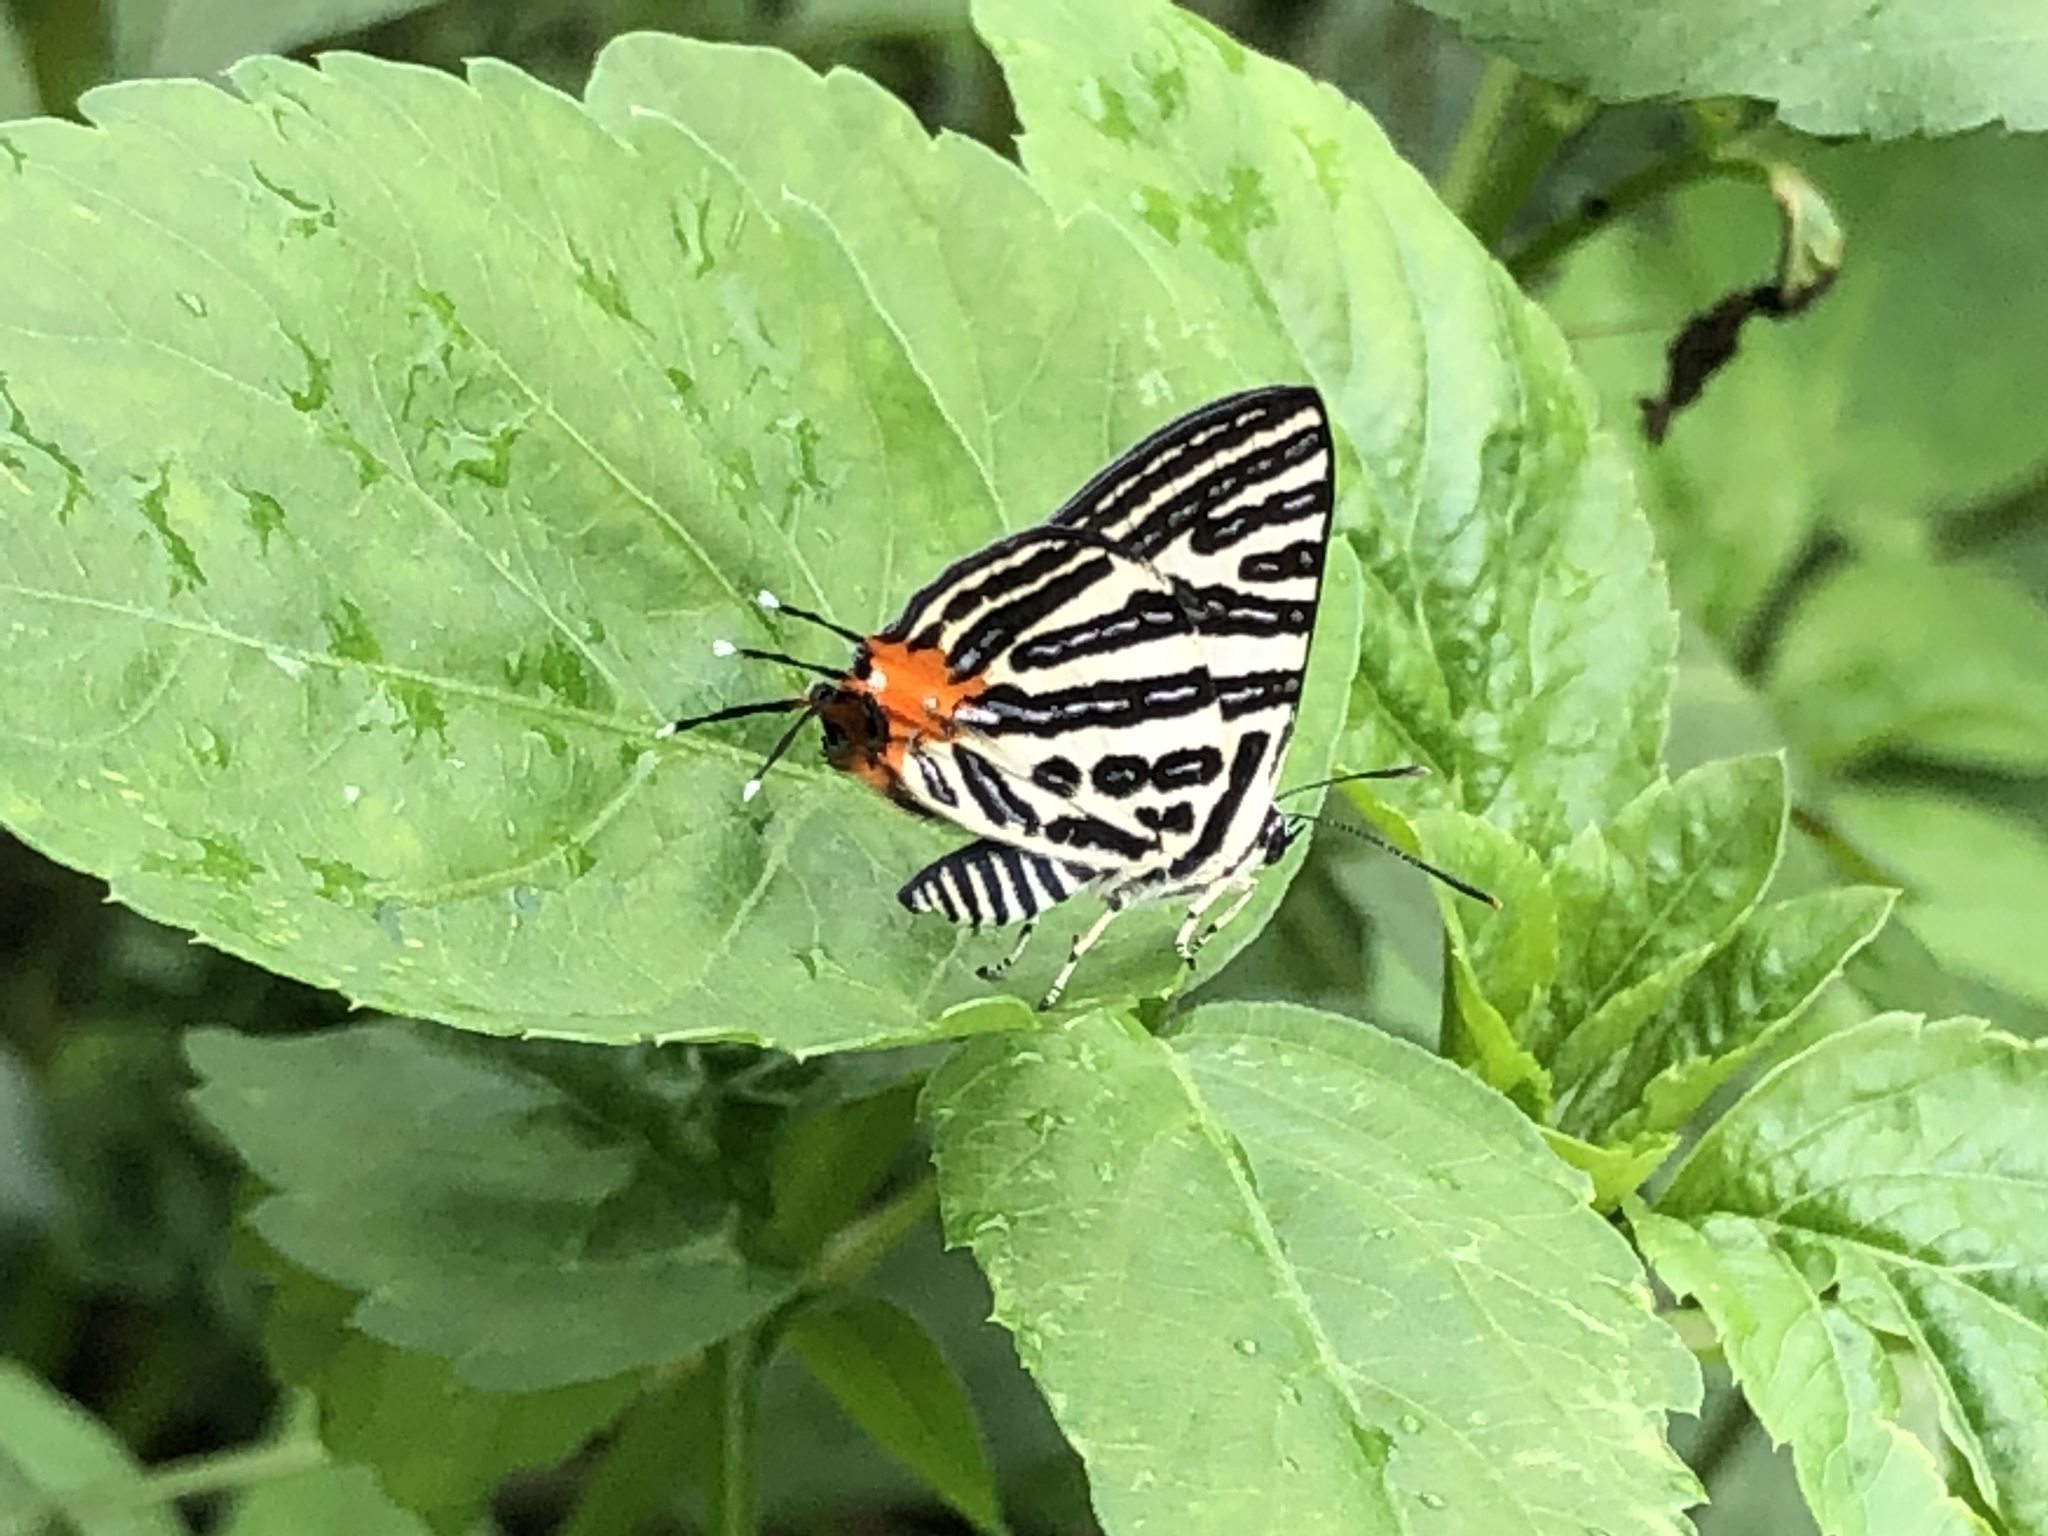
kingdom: Animalia
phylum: Arthropoda
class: Insecta
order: Lepidoptera
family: Lycaenidae
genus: Cigaritis
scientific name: Cigaritis syama
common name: Club silverline
